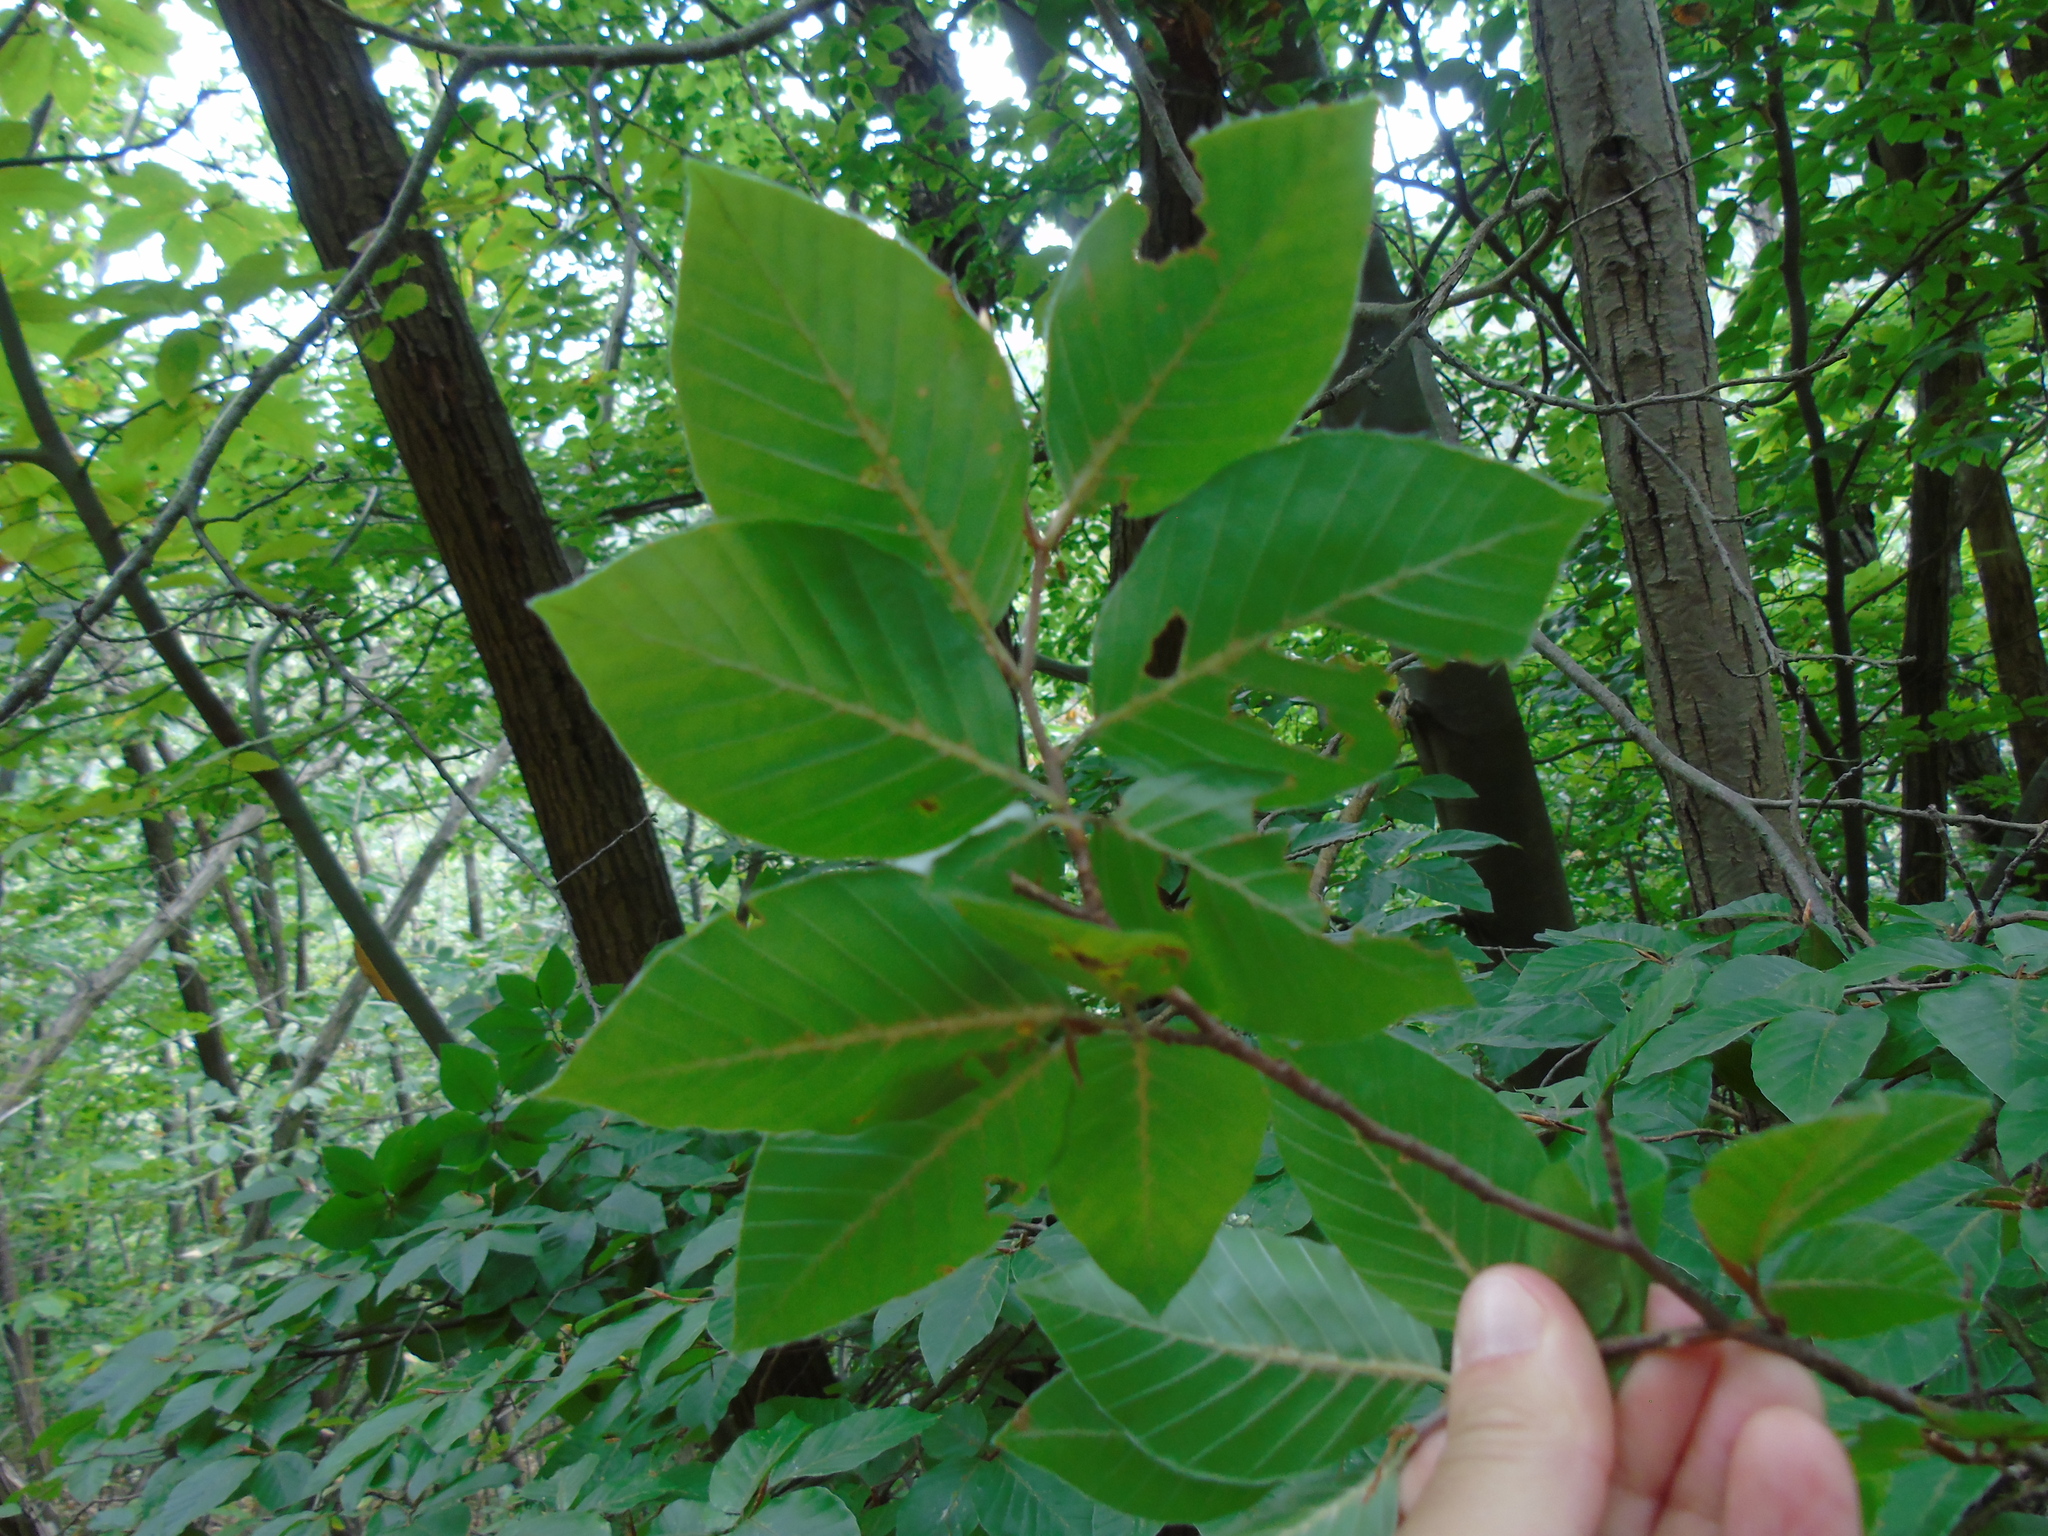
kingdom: Plantae
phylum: Tracheophyta
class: Magnoliopsida
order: Fagales
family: Fagaceae
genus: Fagus
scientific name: Fagus sylvatica
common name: Beech
